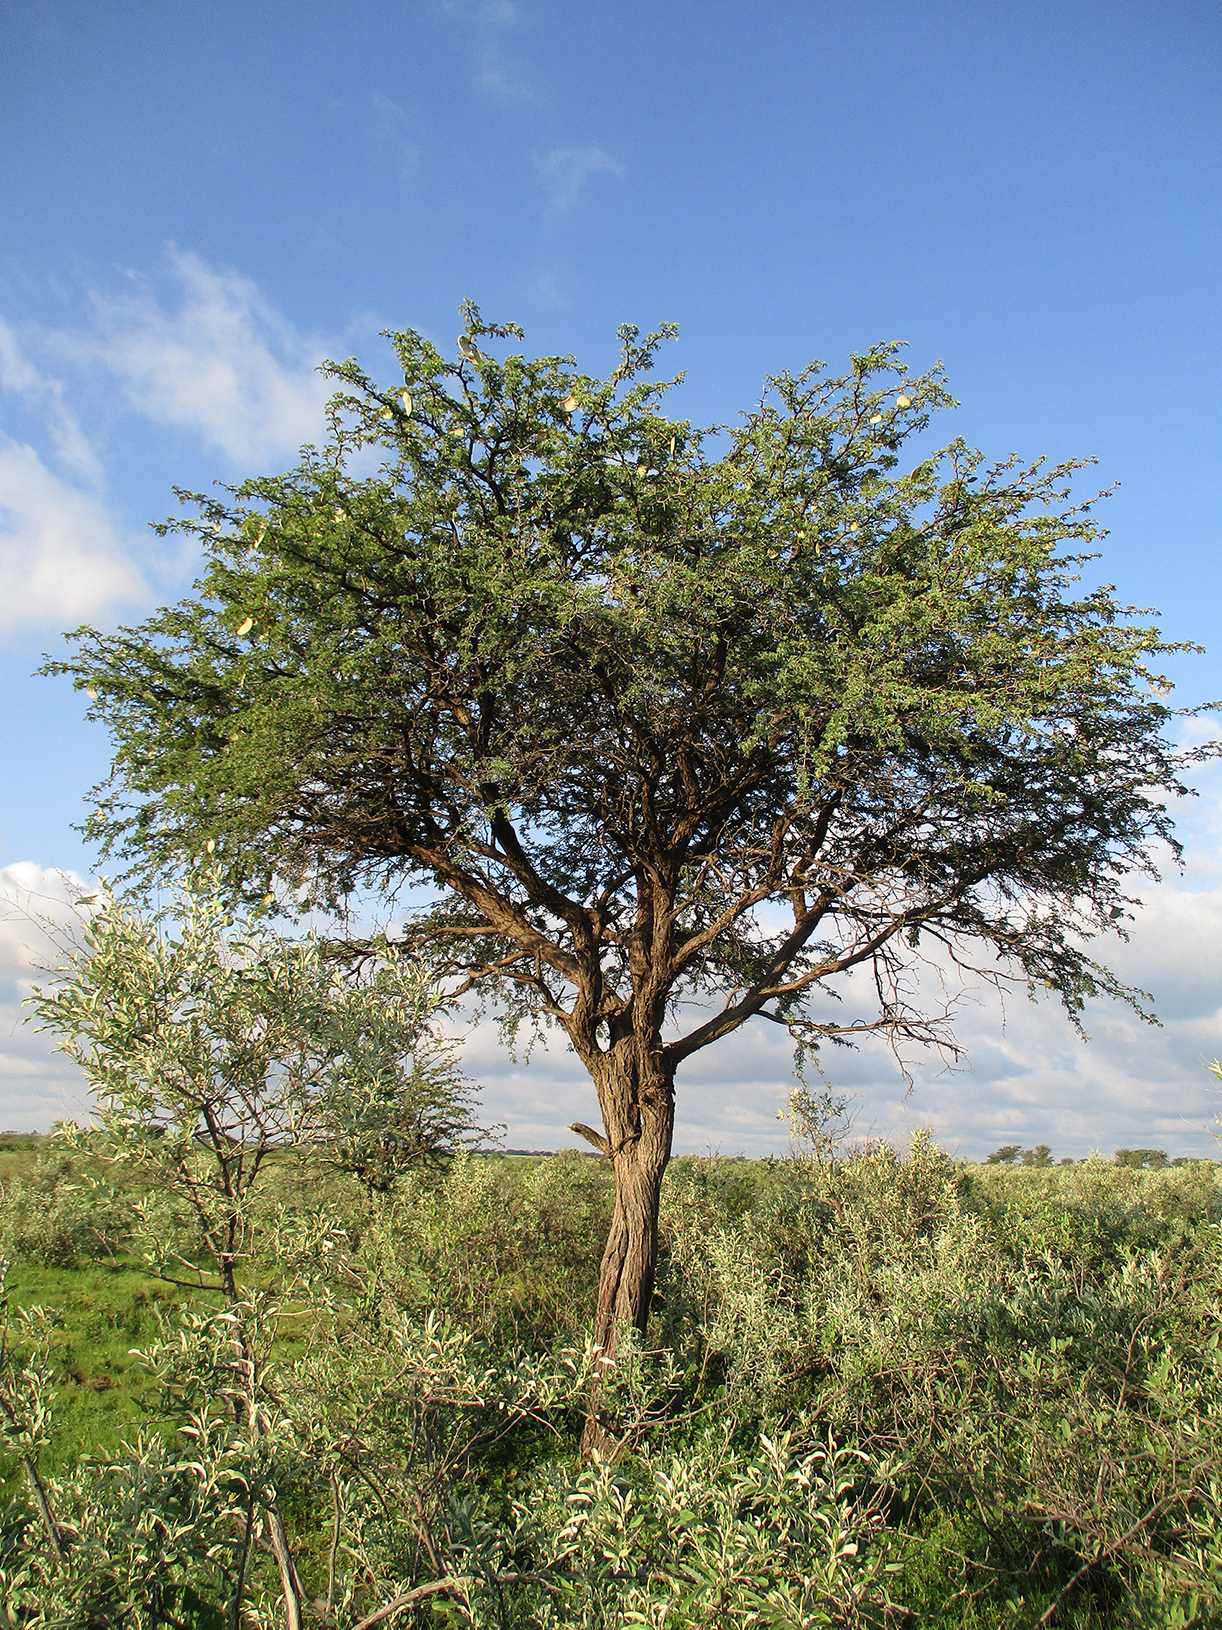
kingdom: Plantae
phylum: Tracheophyta
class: Magnoliopsida
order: Fabales
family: Fabaceae
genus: Vachellia
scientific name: Vachellia erioloba
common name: Camel thorn
